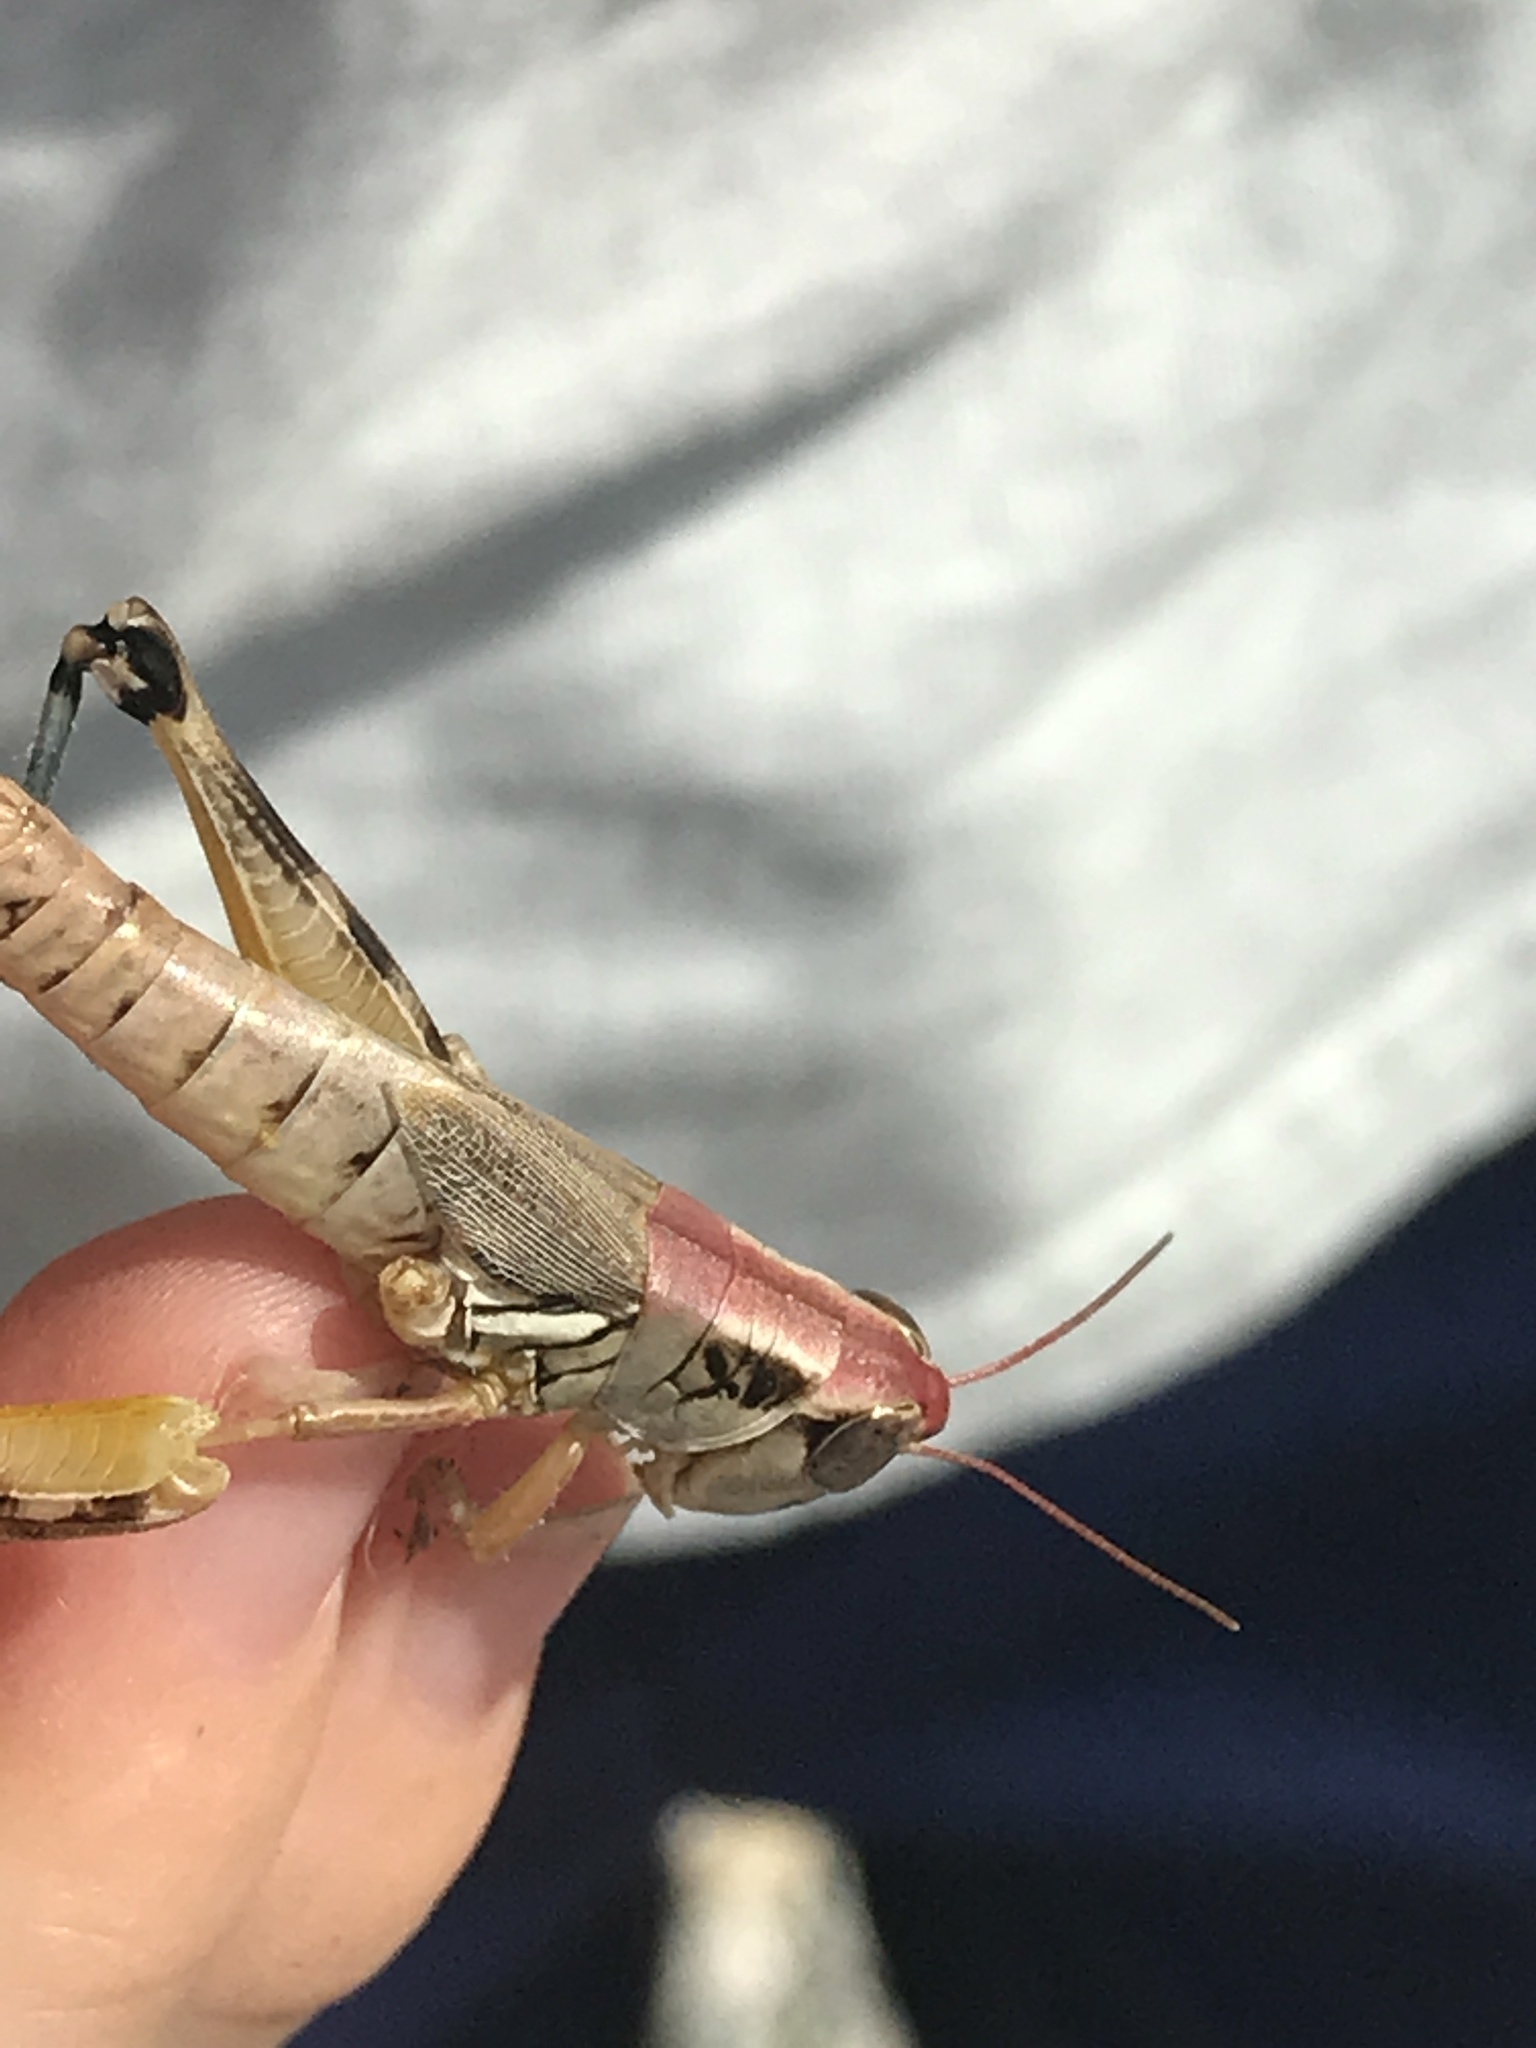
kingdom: Animalia
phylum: Arthropoda
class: Insecta
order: Orthoptera
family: Acrididae
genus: Phoetaliotes
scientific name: Phoetaliotes nebrascensis
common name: Large-headed grasshopper
